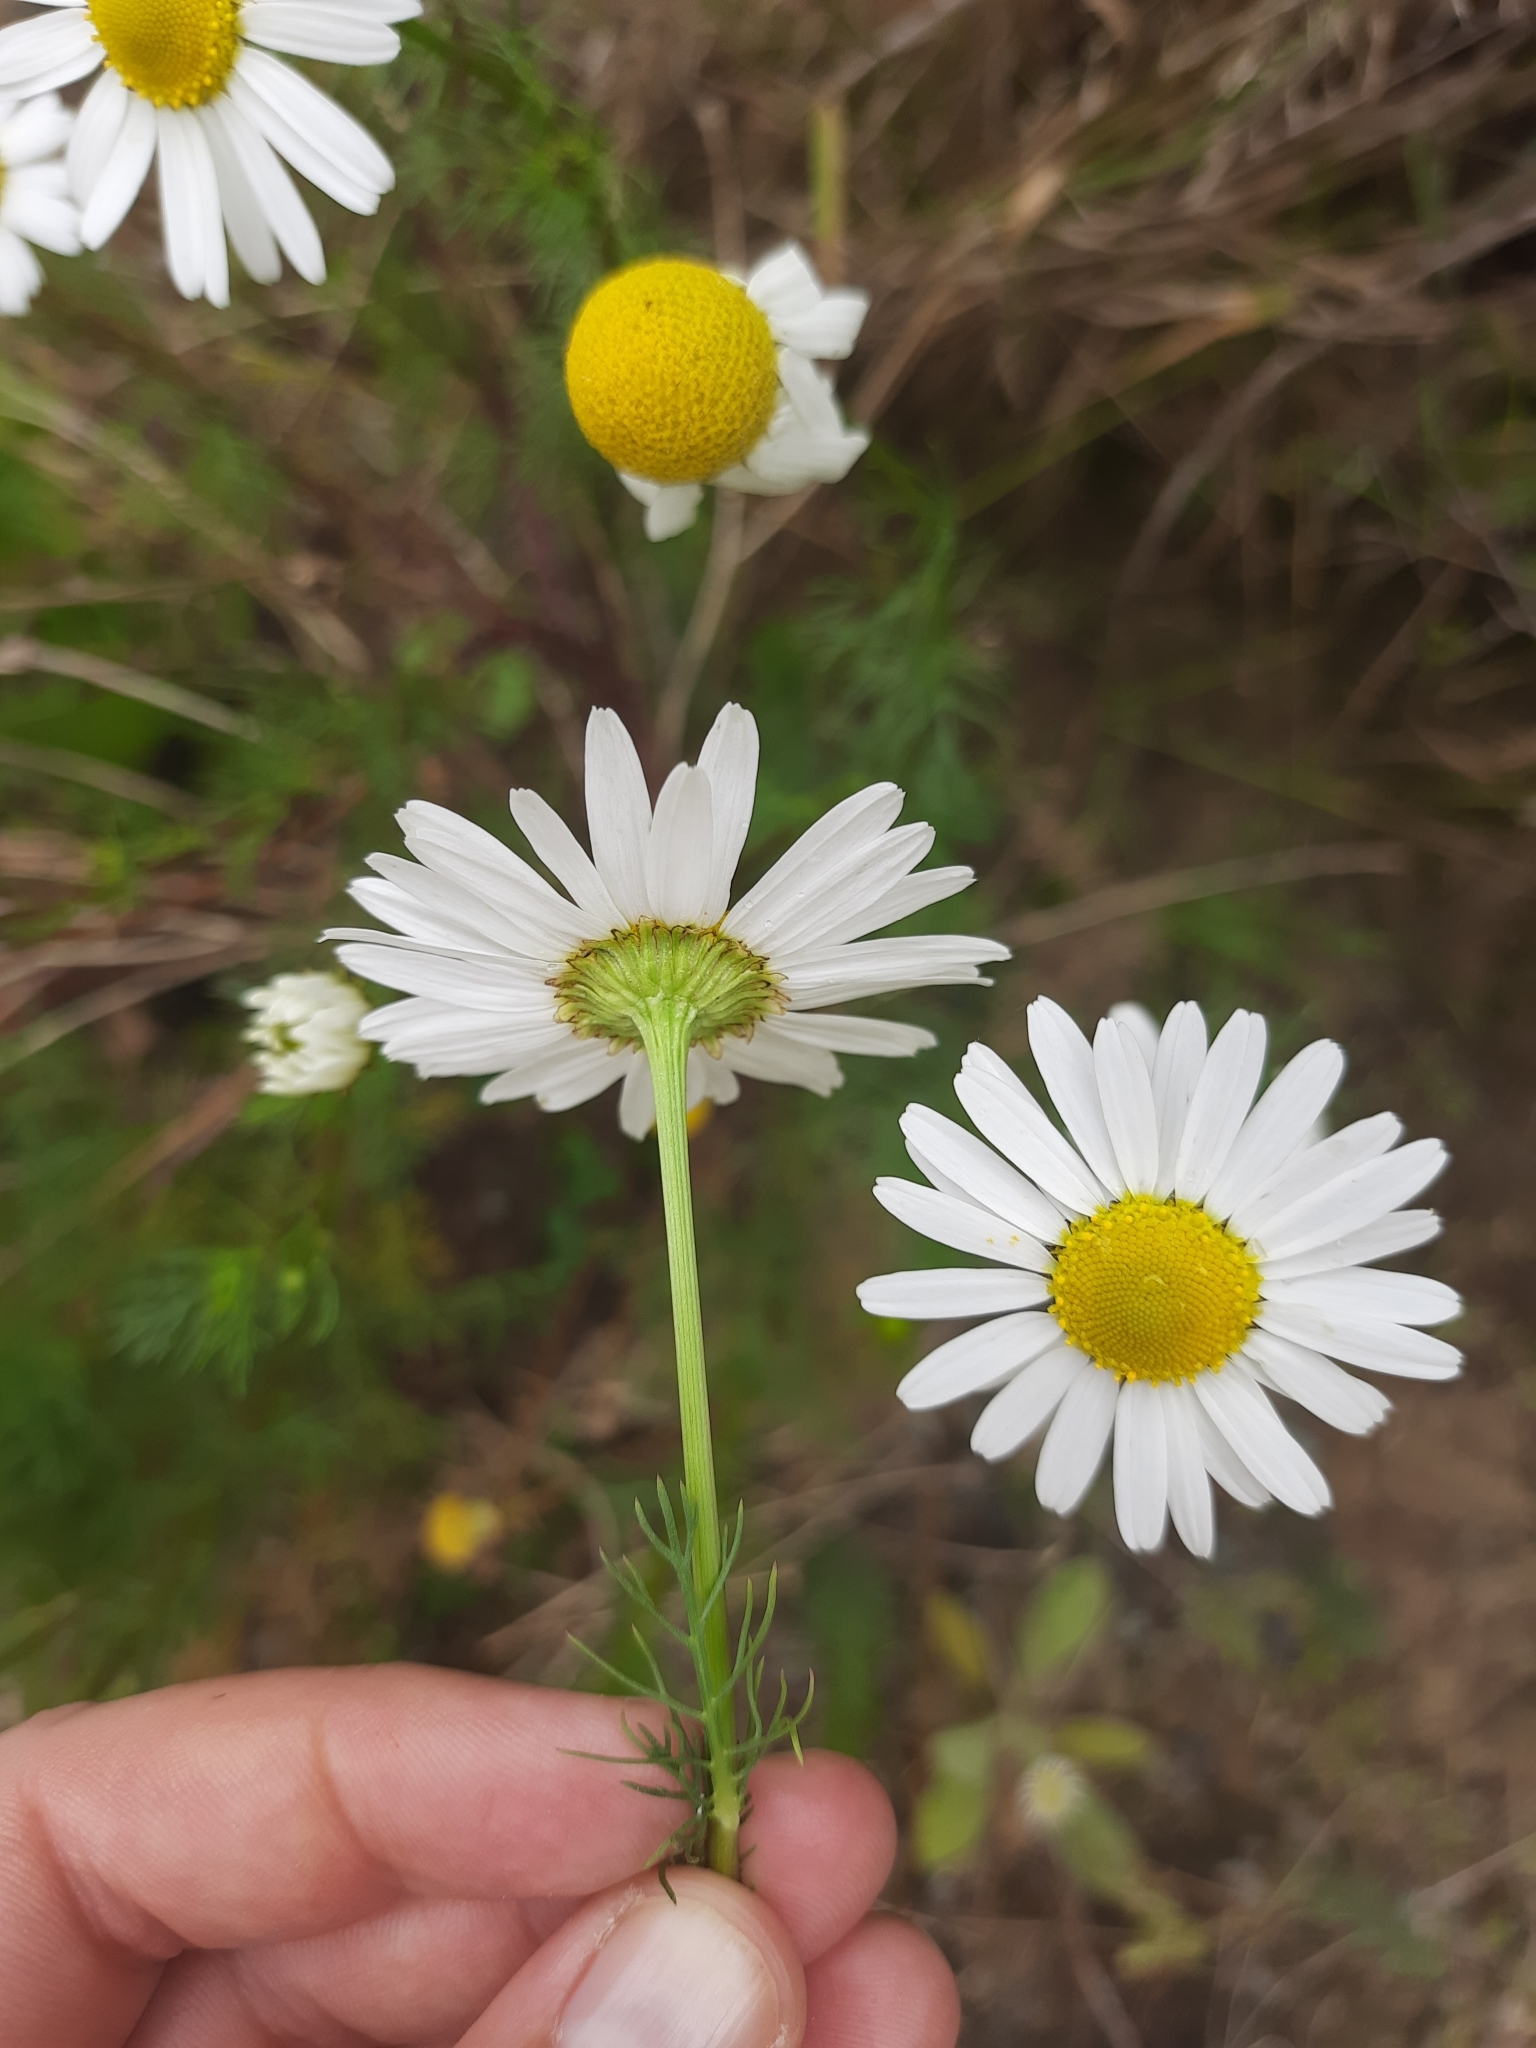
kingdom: Plantae
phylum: Tracheophyta
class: Magnoliopsida
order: Asterales
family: Asteraceae
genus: Tripleurospermum
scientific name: Tripleurospermum inodorum
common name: Scentless mayweed
